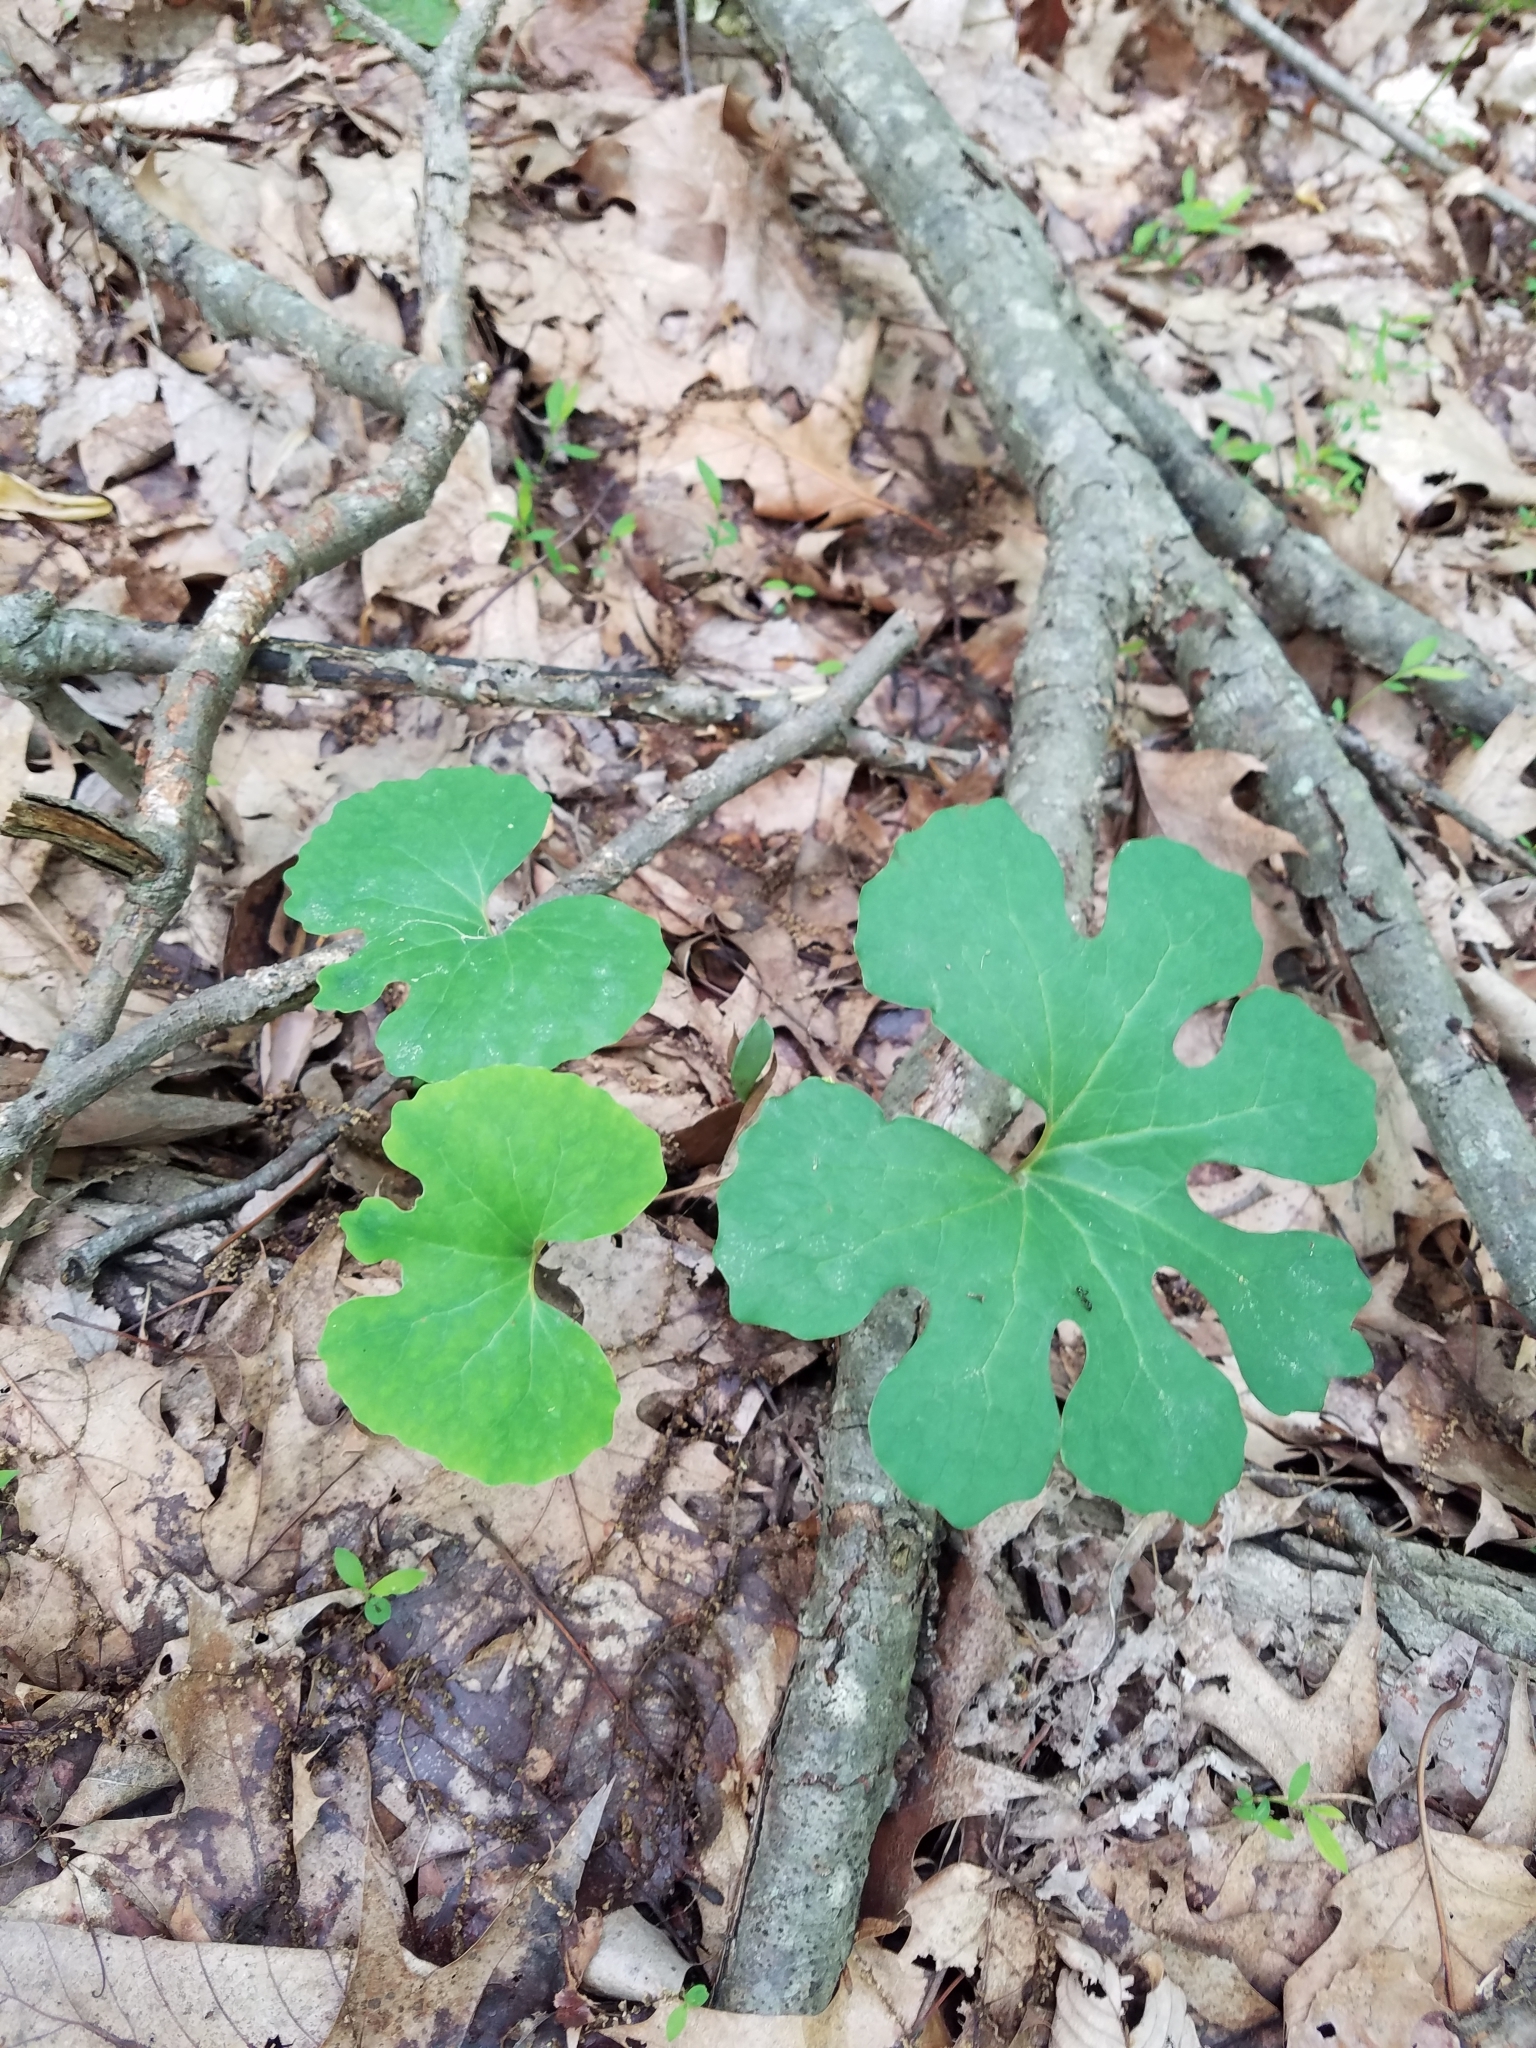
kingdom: Plantae
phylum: Tracheophyta
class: Magnoliopsida
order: Ranunculales
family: Papaveraceae
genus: Sanguinaria
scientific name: Sanguinaria canadensis
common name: Bloodroot
